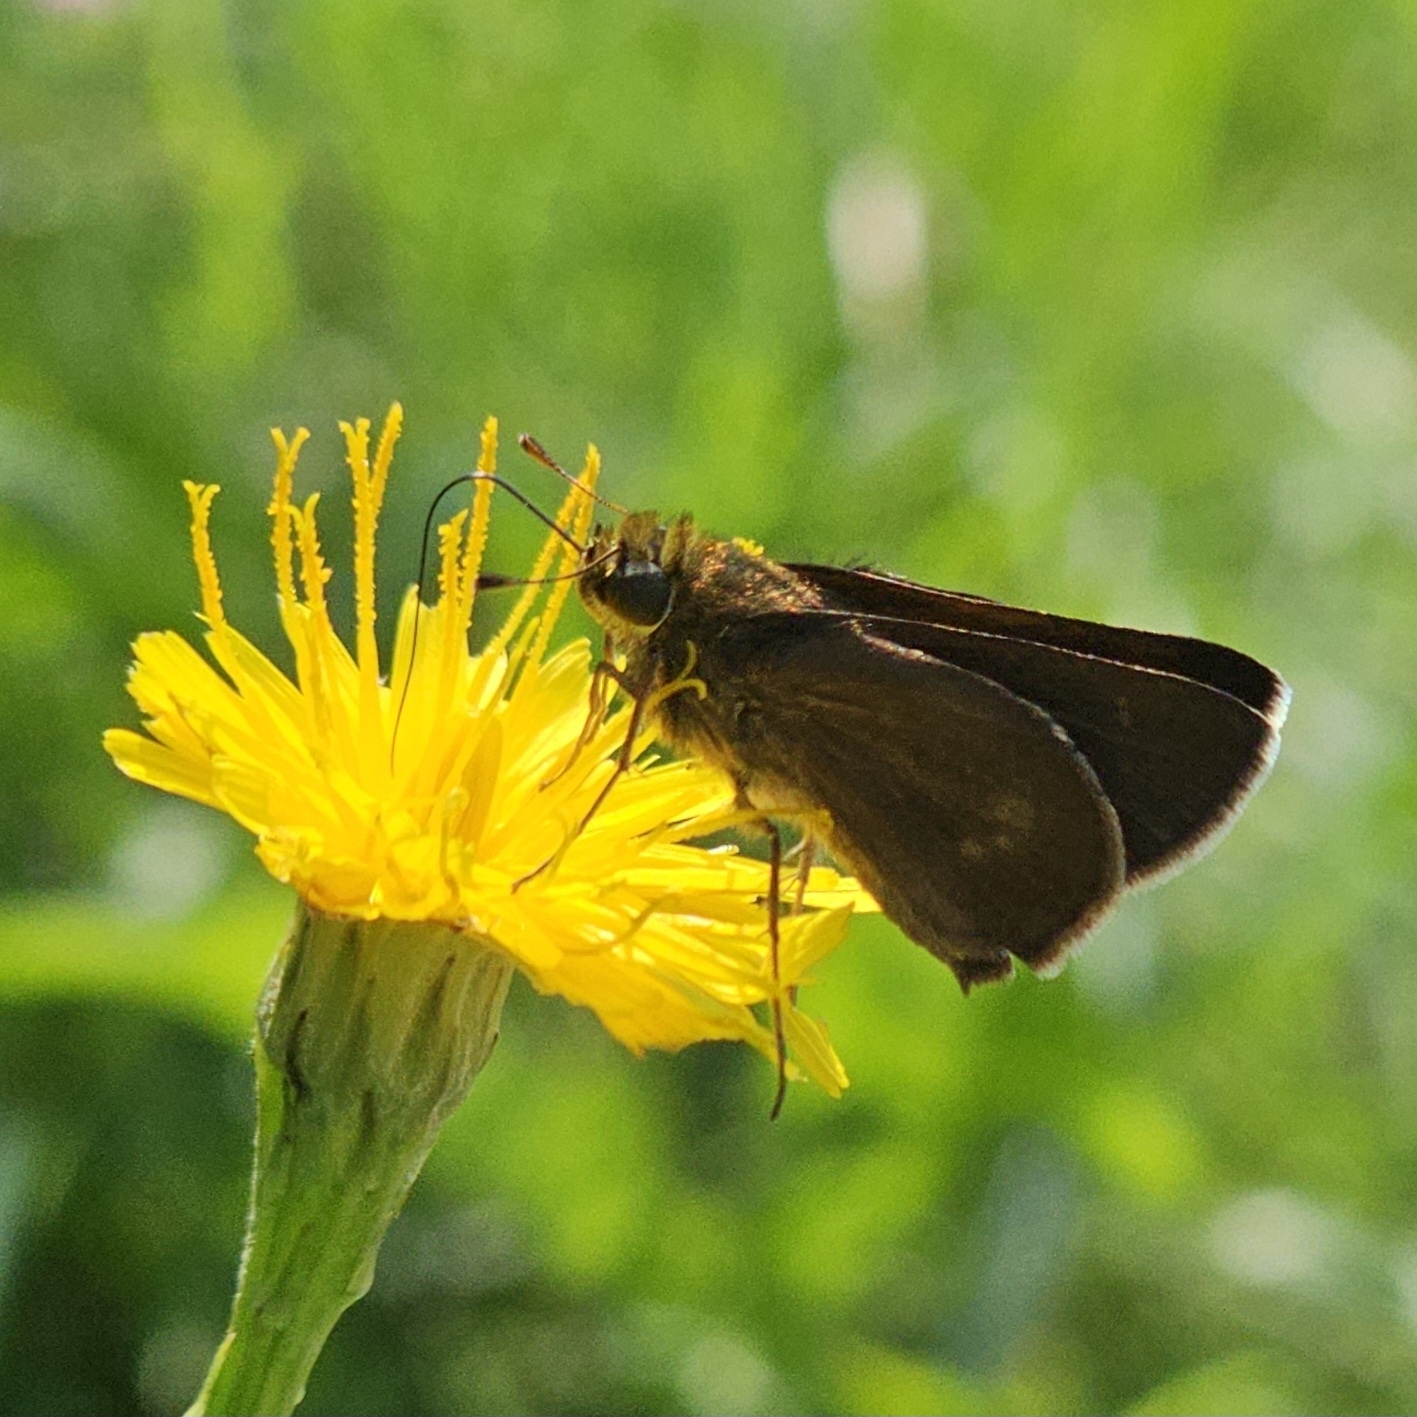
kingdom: Animalia
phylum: Arthropoda
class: Insecta
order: Lepidoptera
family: Hesperiidae
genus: Euphyes
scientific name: Euphyes vestris
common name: Dun skipper
